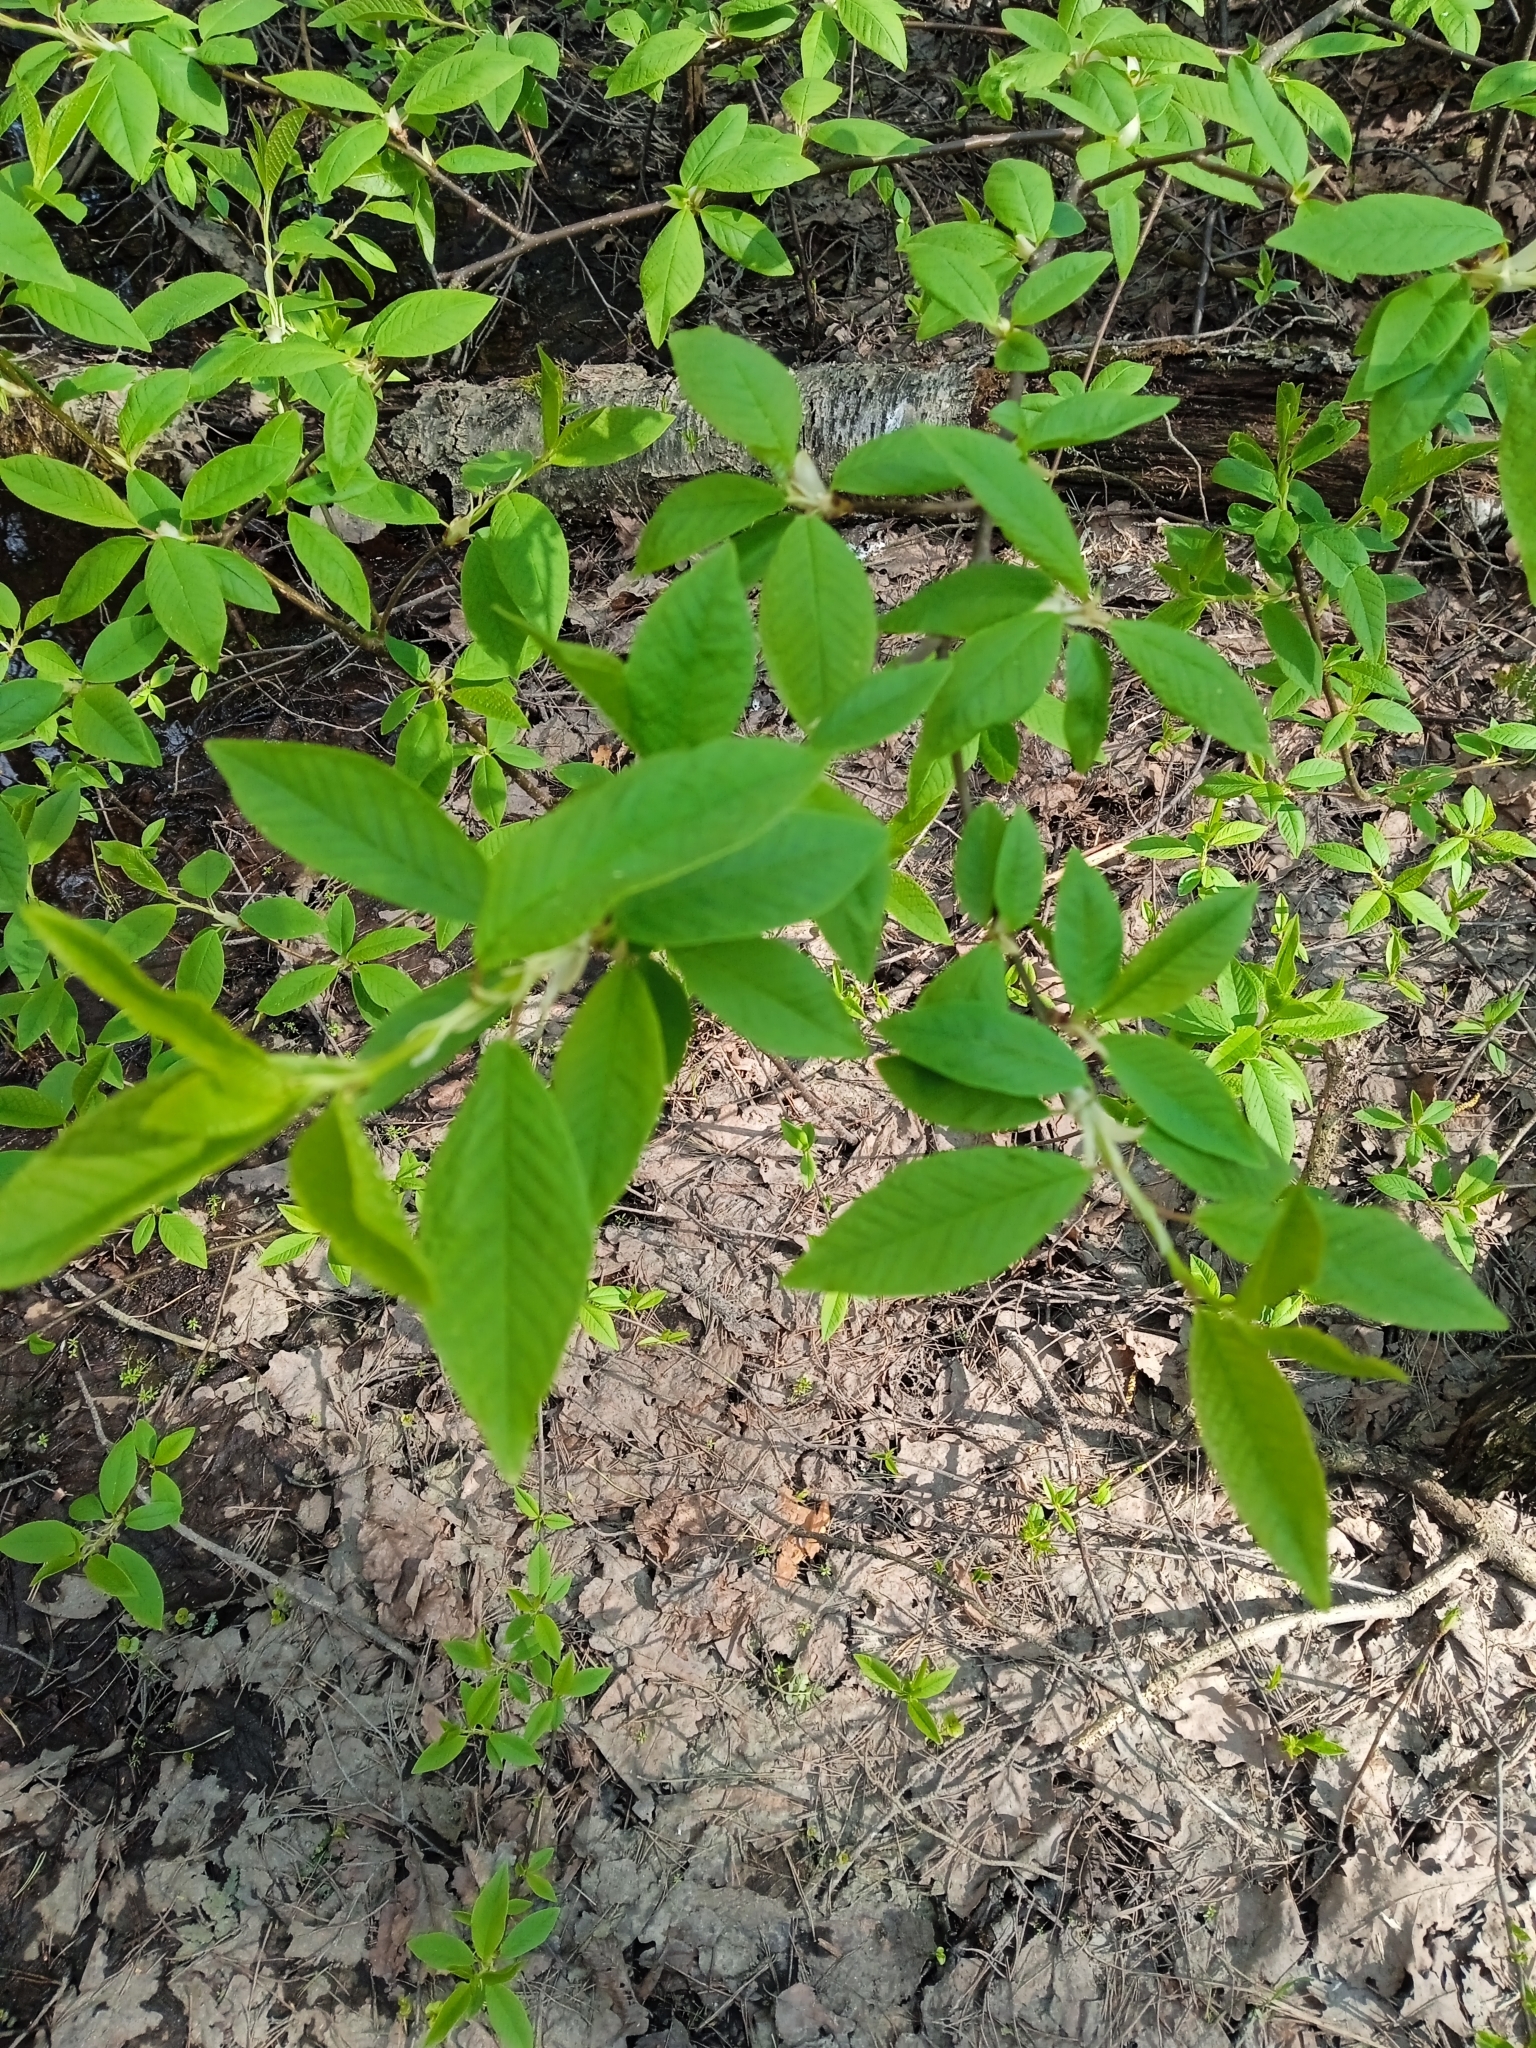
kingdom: Plantae
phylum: Tracheophyta
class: Magnoliopsida
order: Rosales
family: Rosaceae
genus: Prunus
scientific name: Prunus padus
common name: Bird cherry
